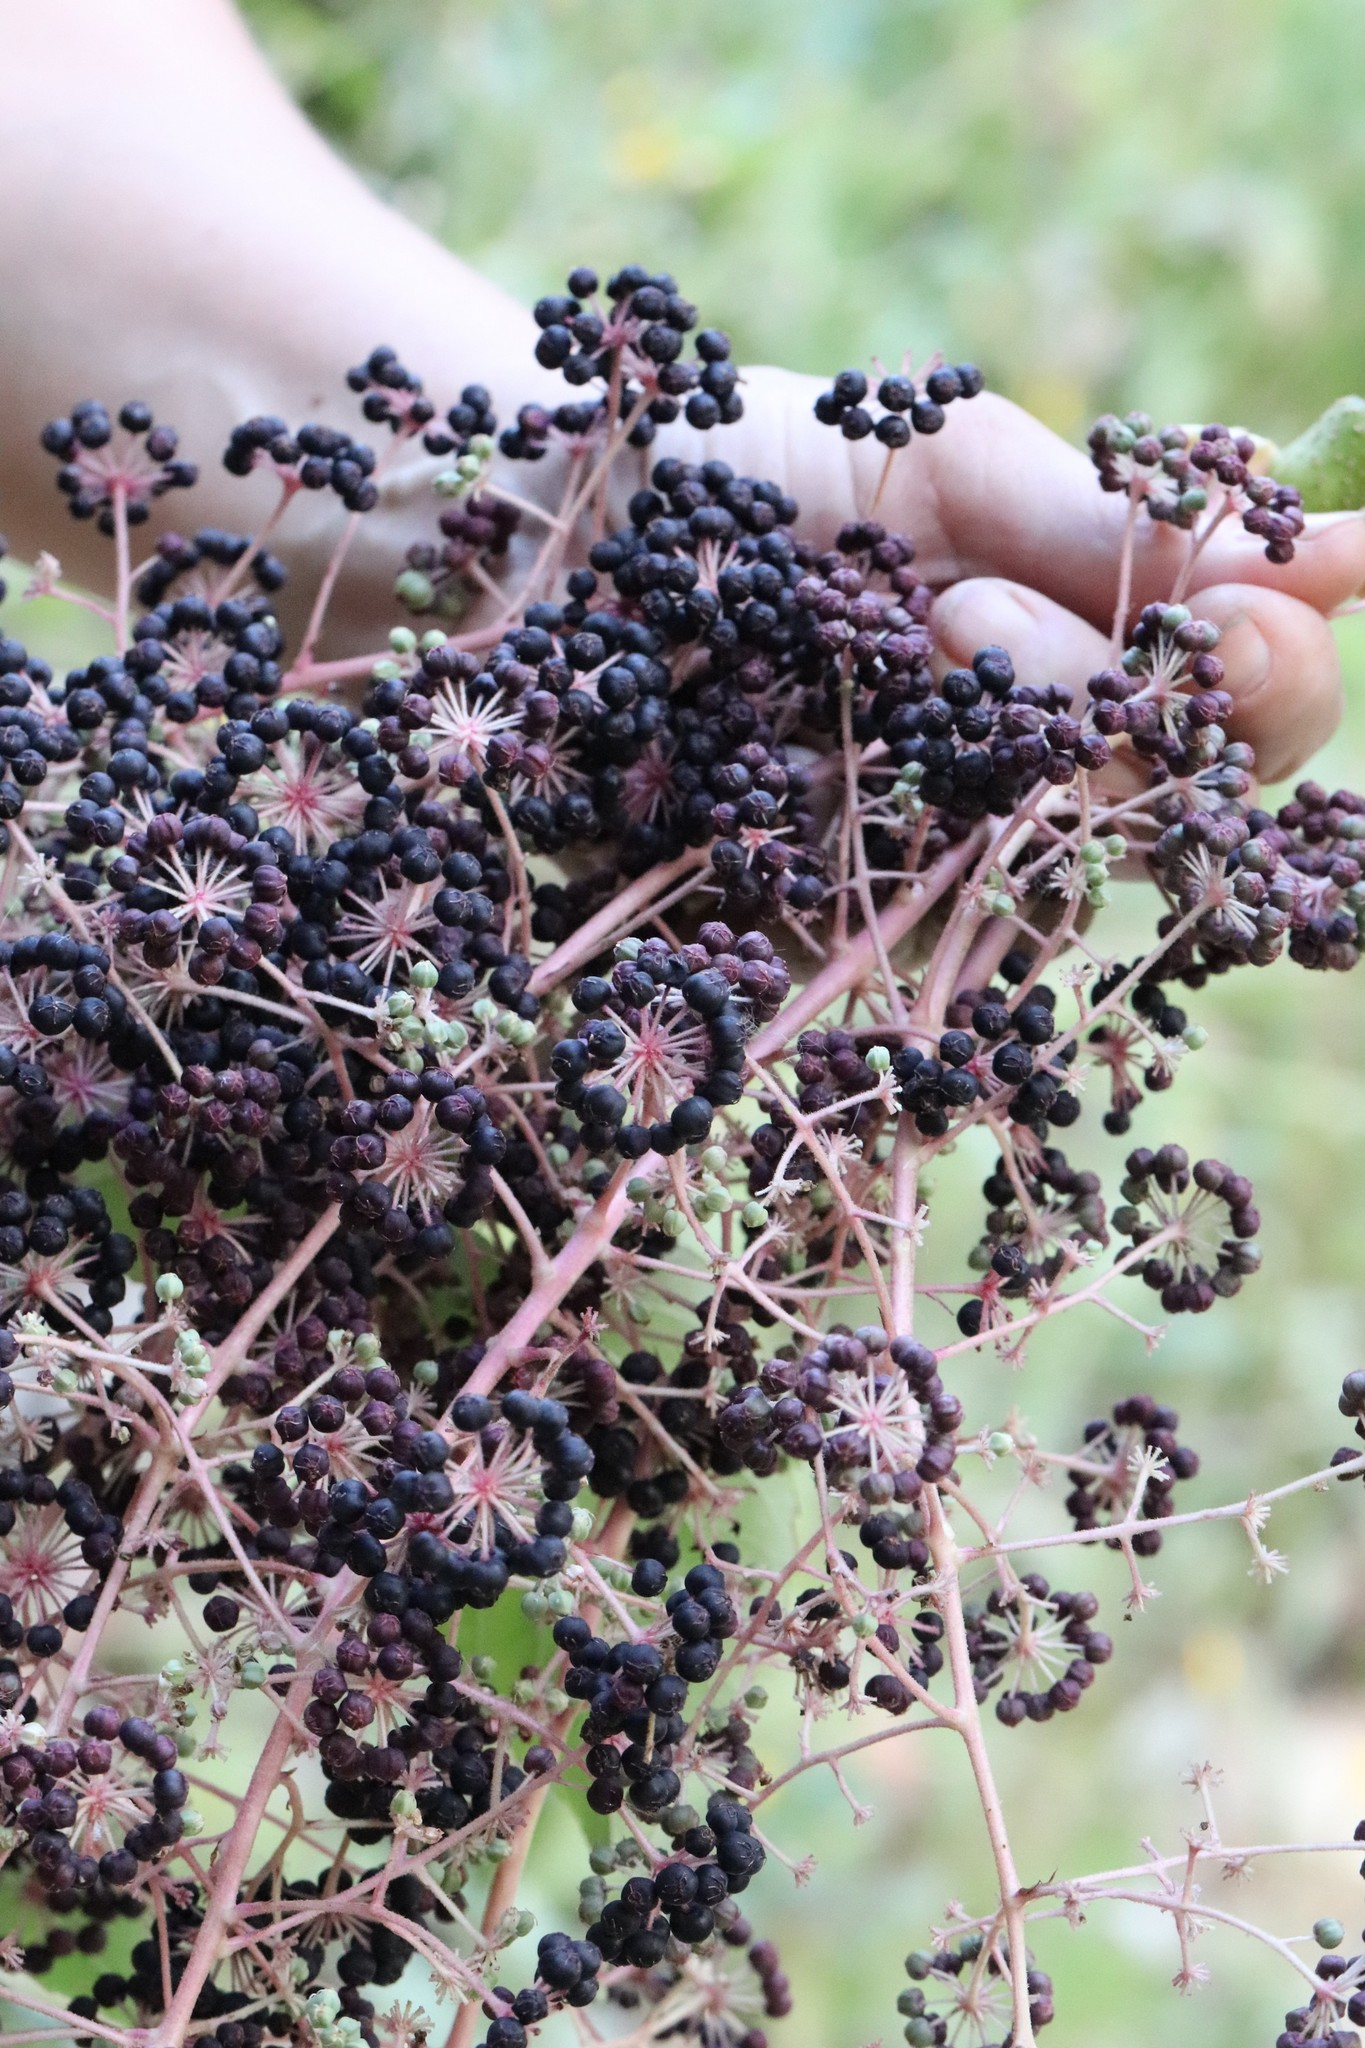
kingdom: Plantae
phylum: Tracheophyta
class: Magnoliopsida
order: Apiales
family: Araliaceae
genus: Aralia
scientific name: Aralia elata
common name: Japanese angelica-tree
